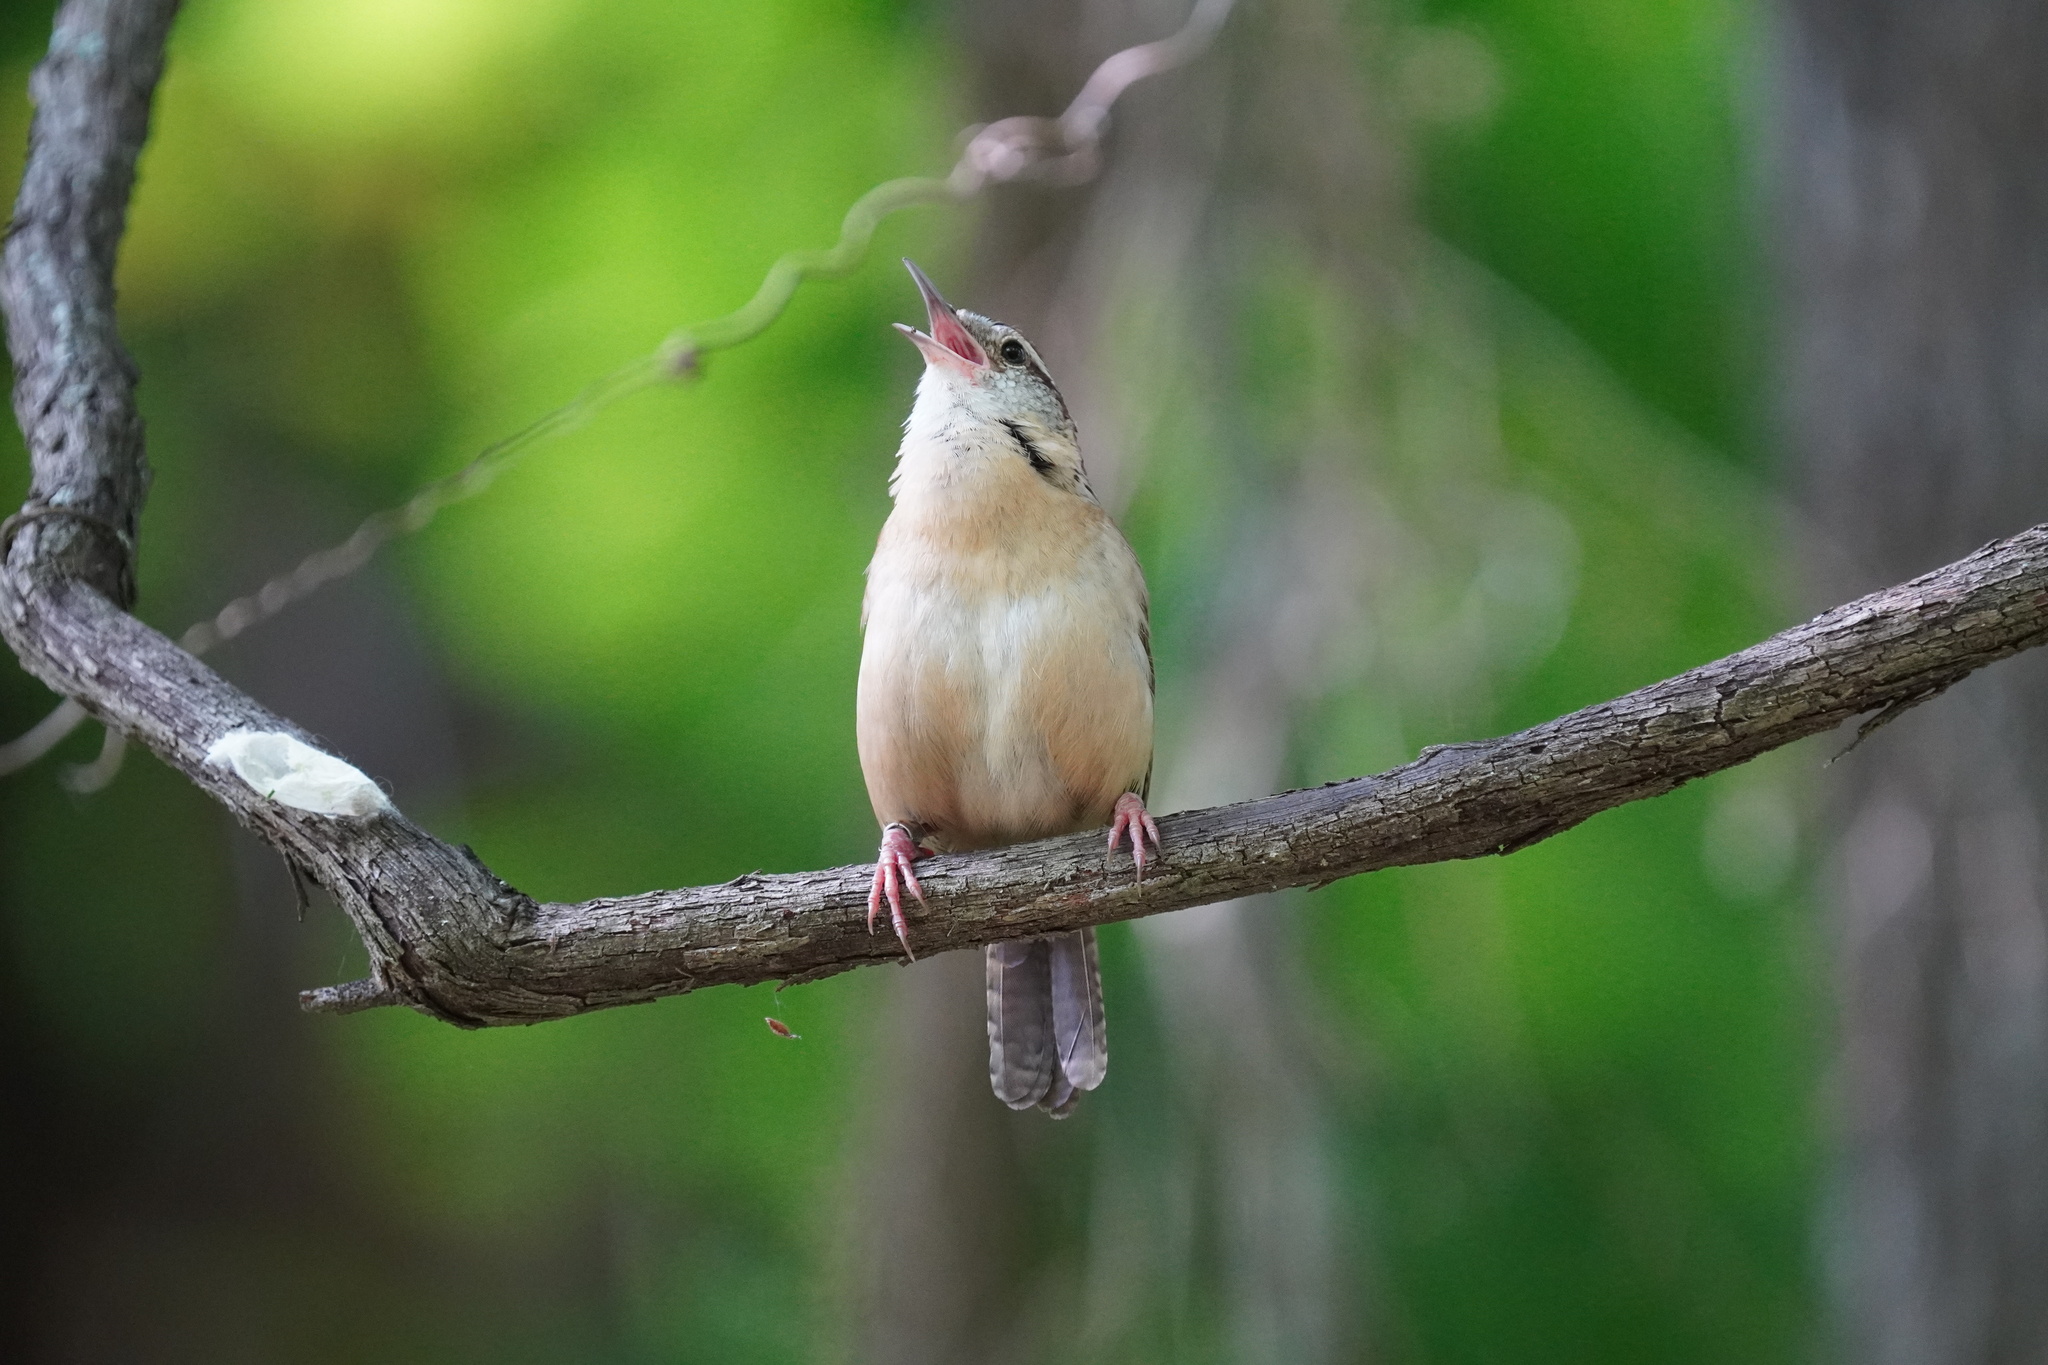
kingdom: Animalia
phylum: Chordata
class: Aves
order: Passeriformes
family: Troglodytidae
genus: Thryothorus
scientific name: Thryothorus ludovicianus
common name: Carolina wren
